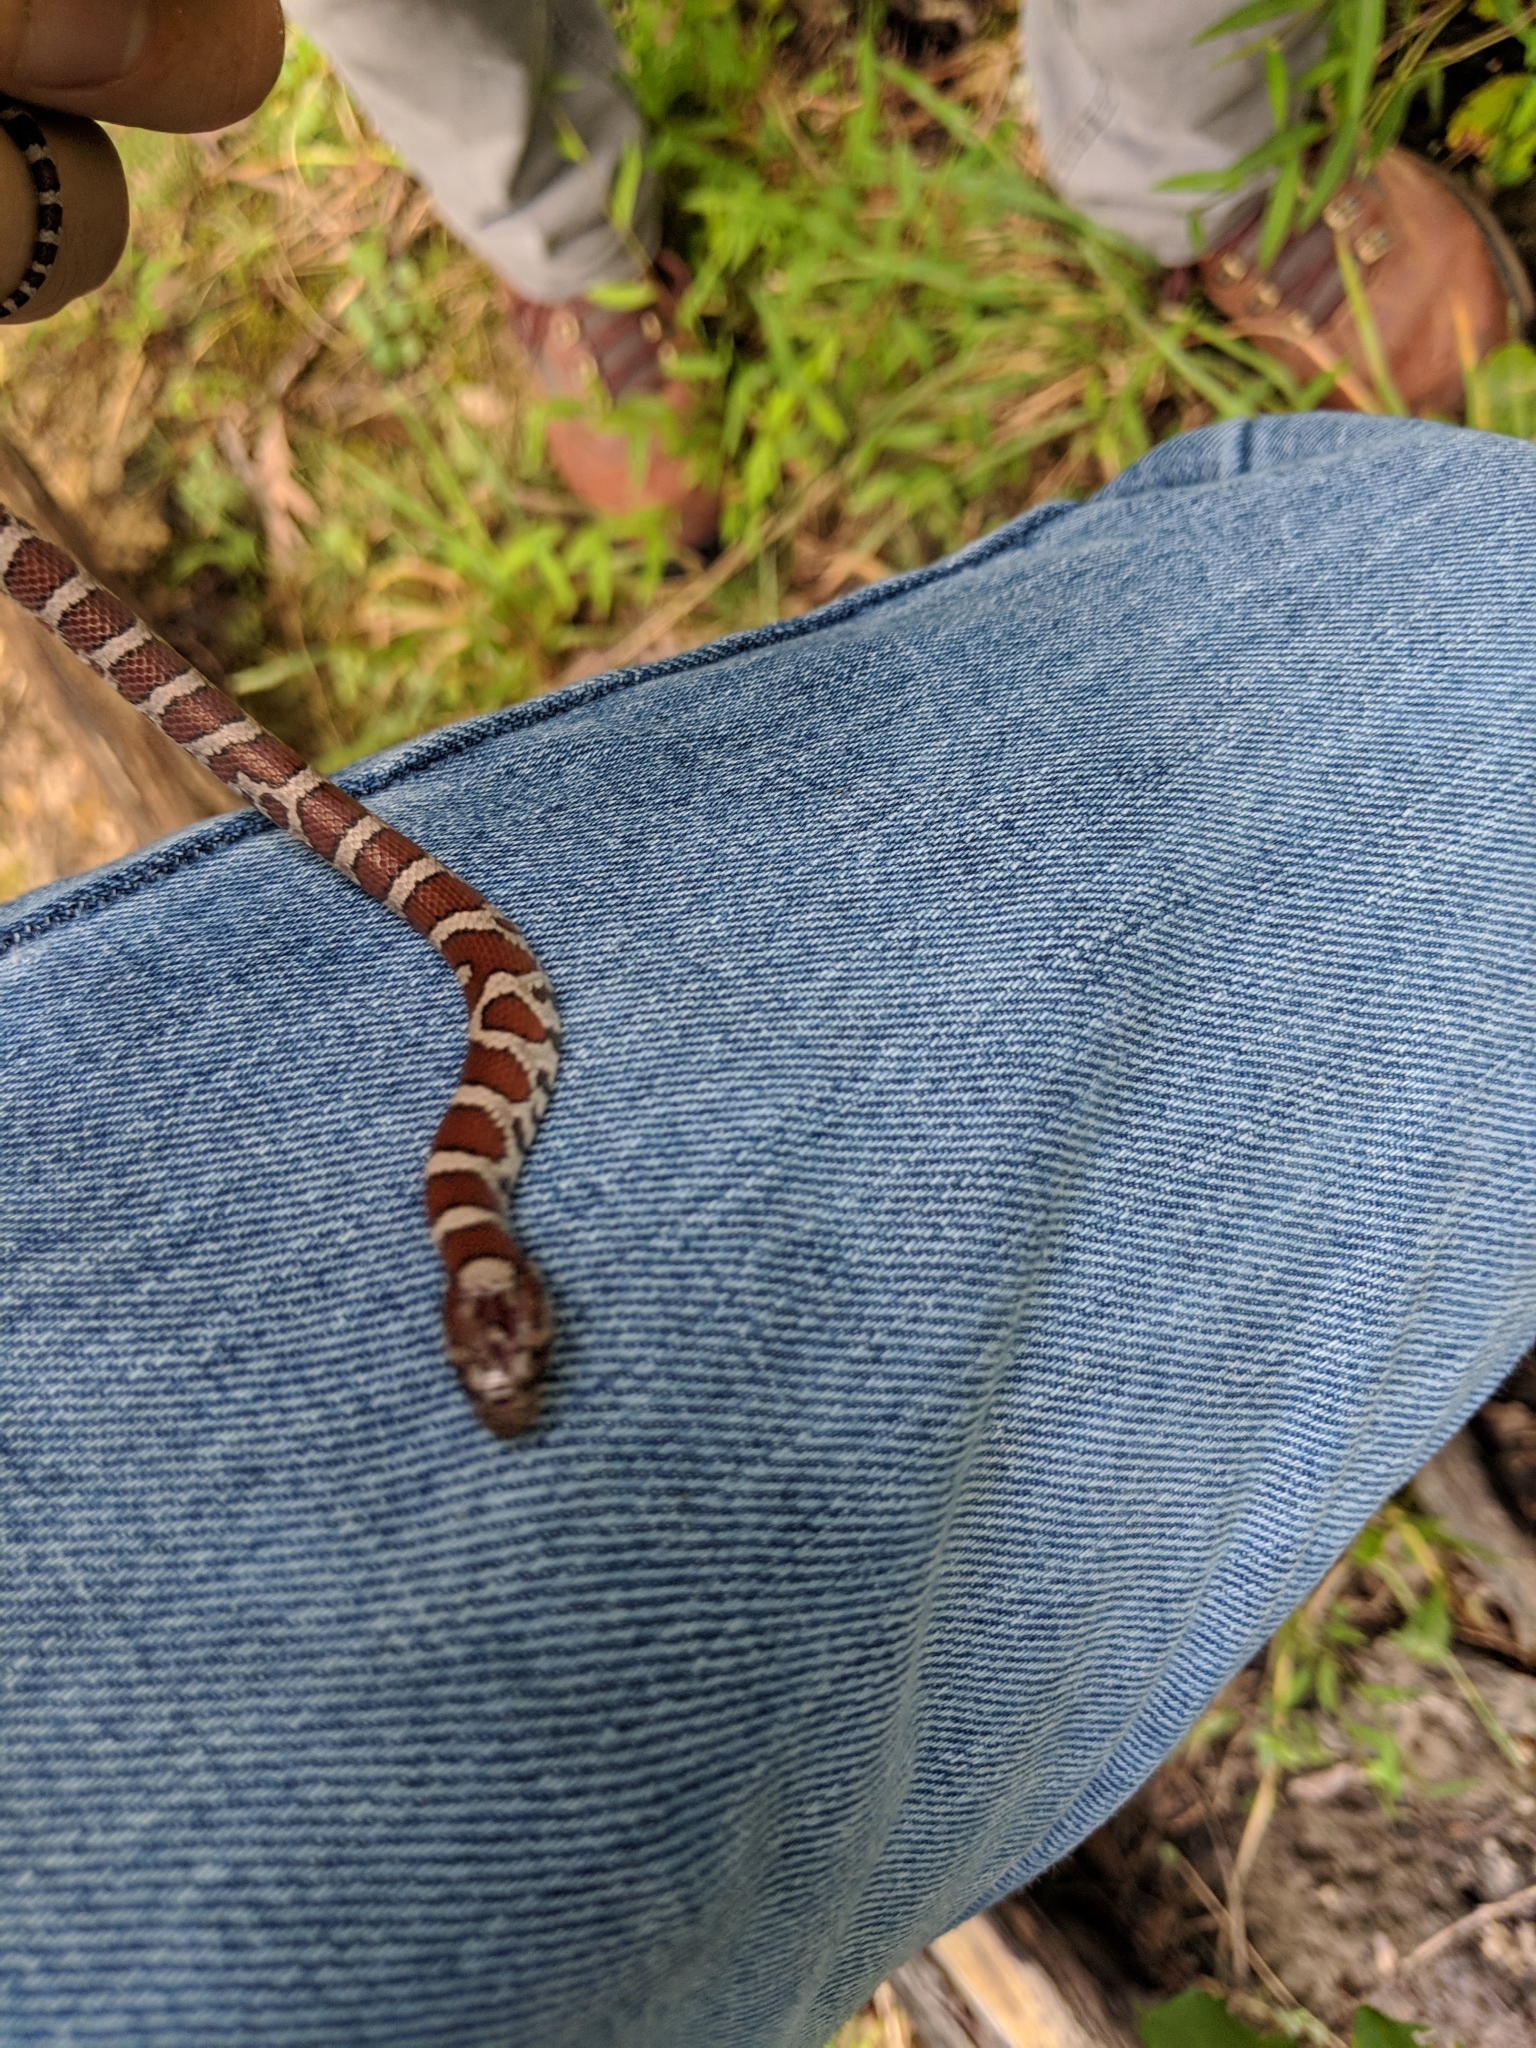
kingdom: Animalia
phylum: Chordata
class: Squamata
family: Colubridae
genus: Lampropeltis
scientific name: Lampropeltis triangulum
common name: Eastern milksnake
